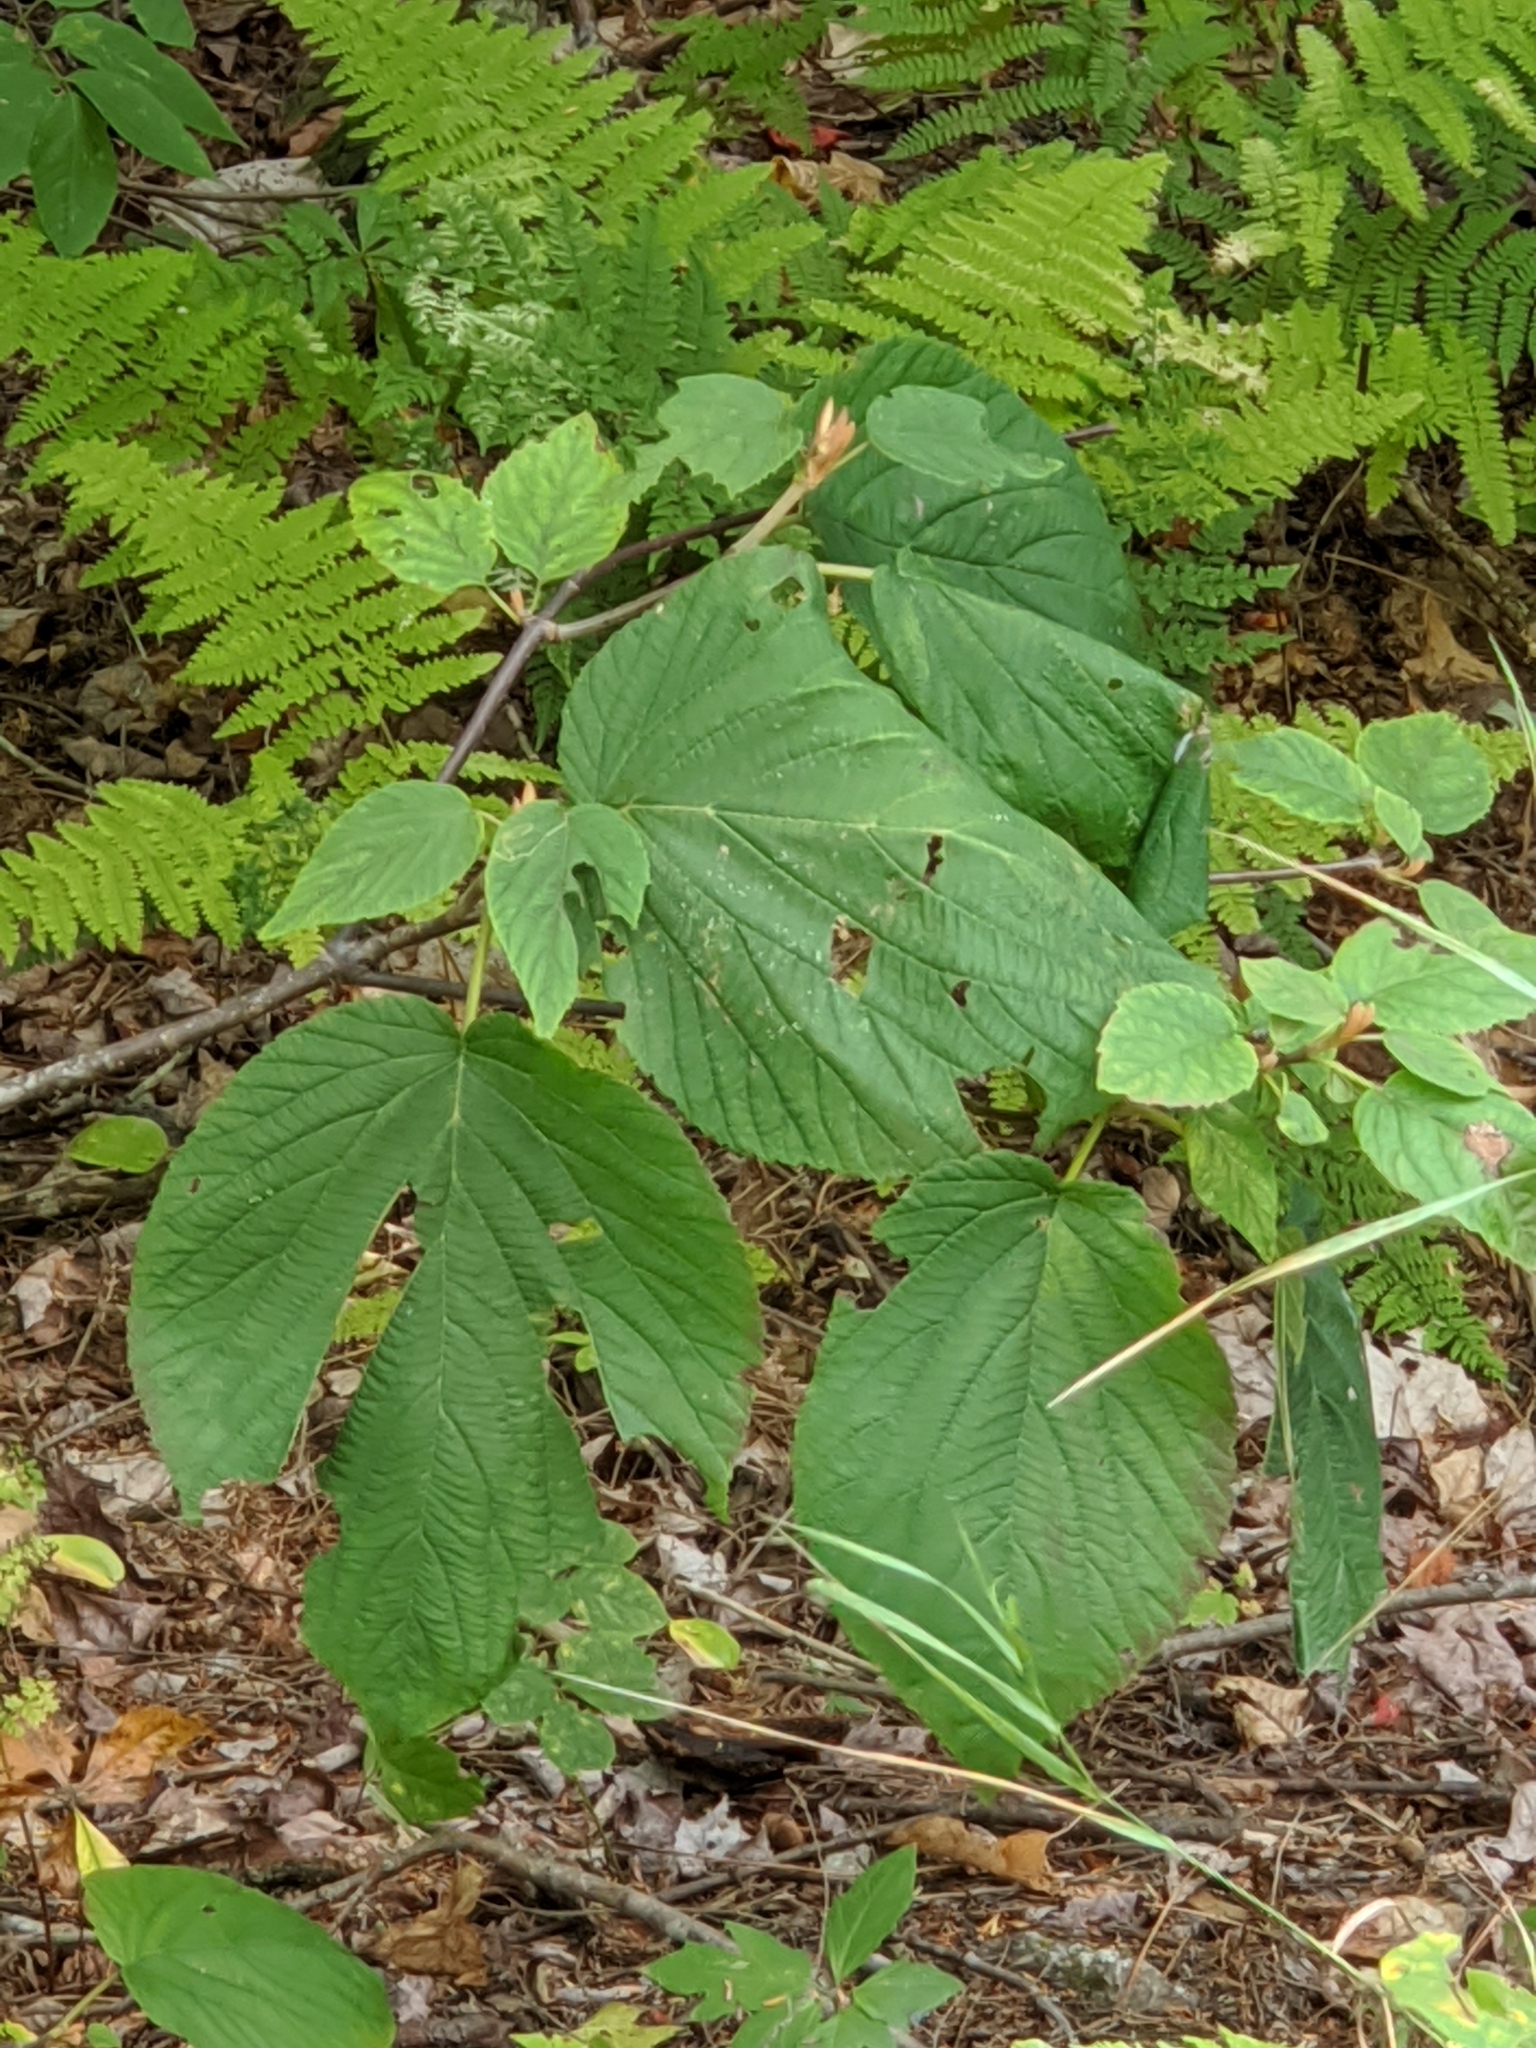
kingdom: Plantae
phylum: Tracheophyta
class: Magnoliopsida
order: Dipsacales
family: Viburnaceae
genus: Viburnum
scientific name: Viburnum lantanoides
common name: Hobblebush
